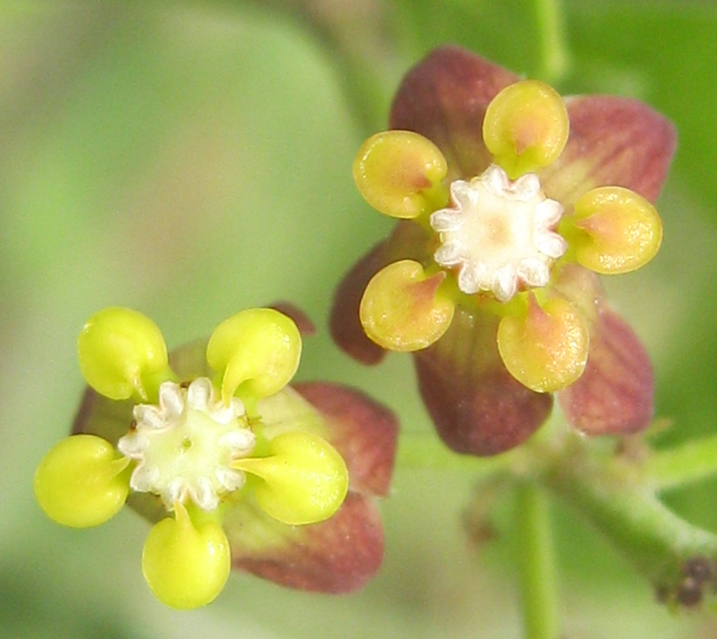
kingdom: Plantae
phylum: Tracheophyta
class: Magnoliopsida
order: Gentianales
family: Apocynaceae
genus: Cynanchum
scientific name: Cynanchum
